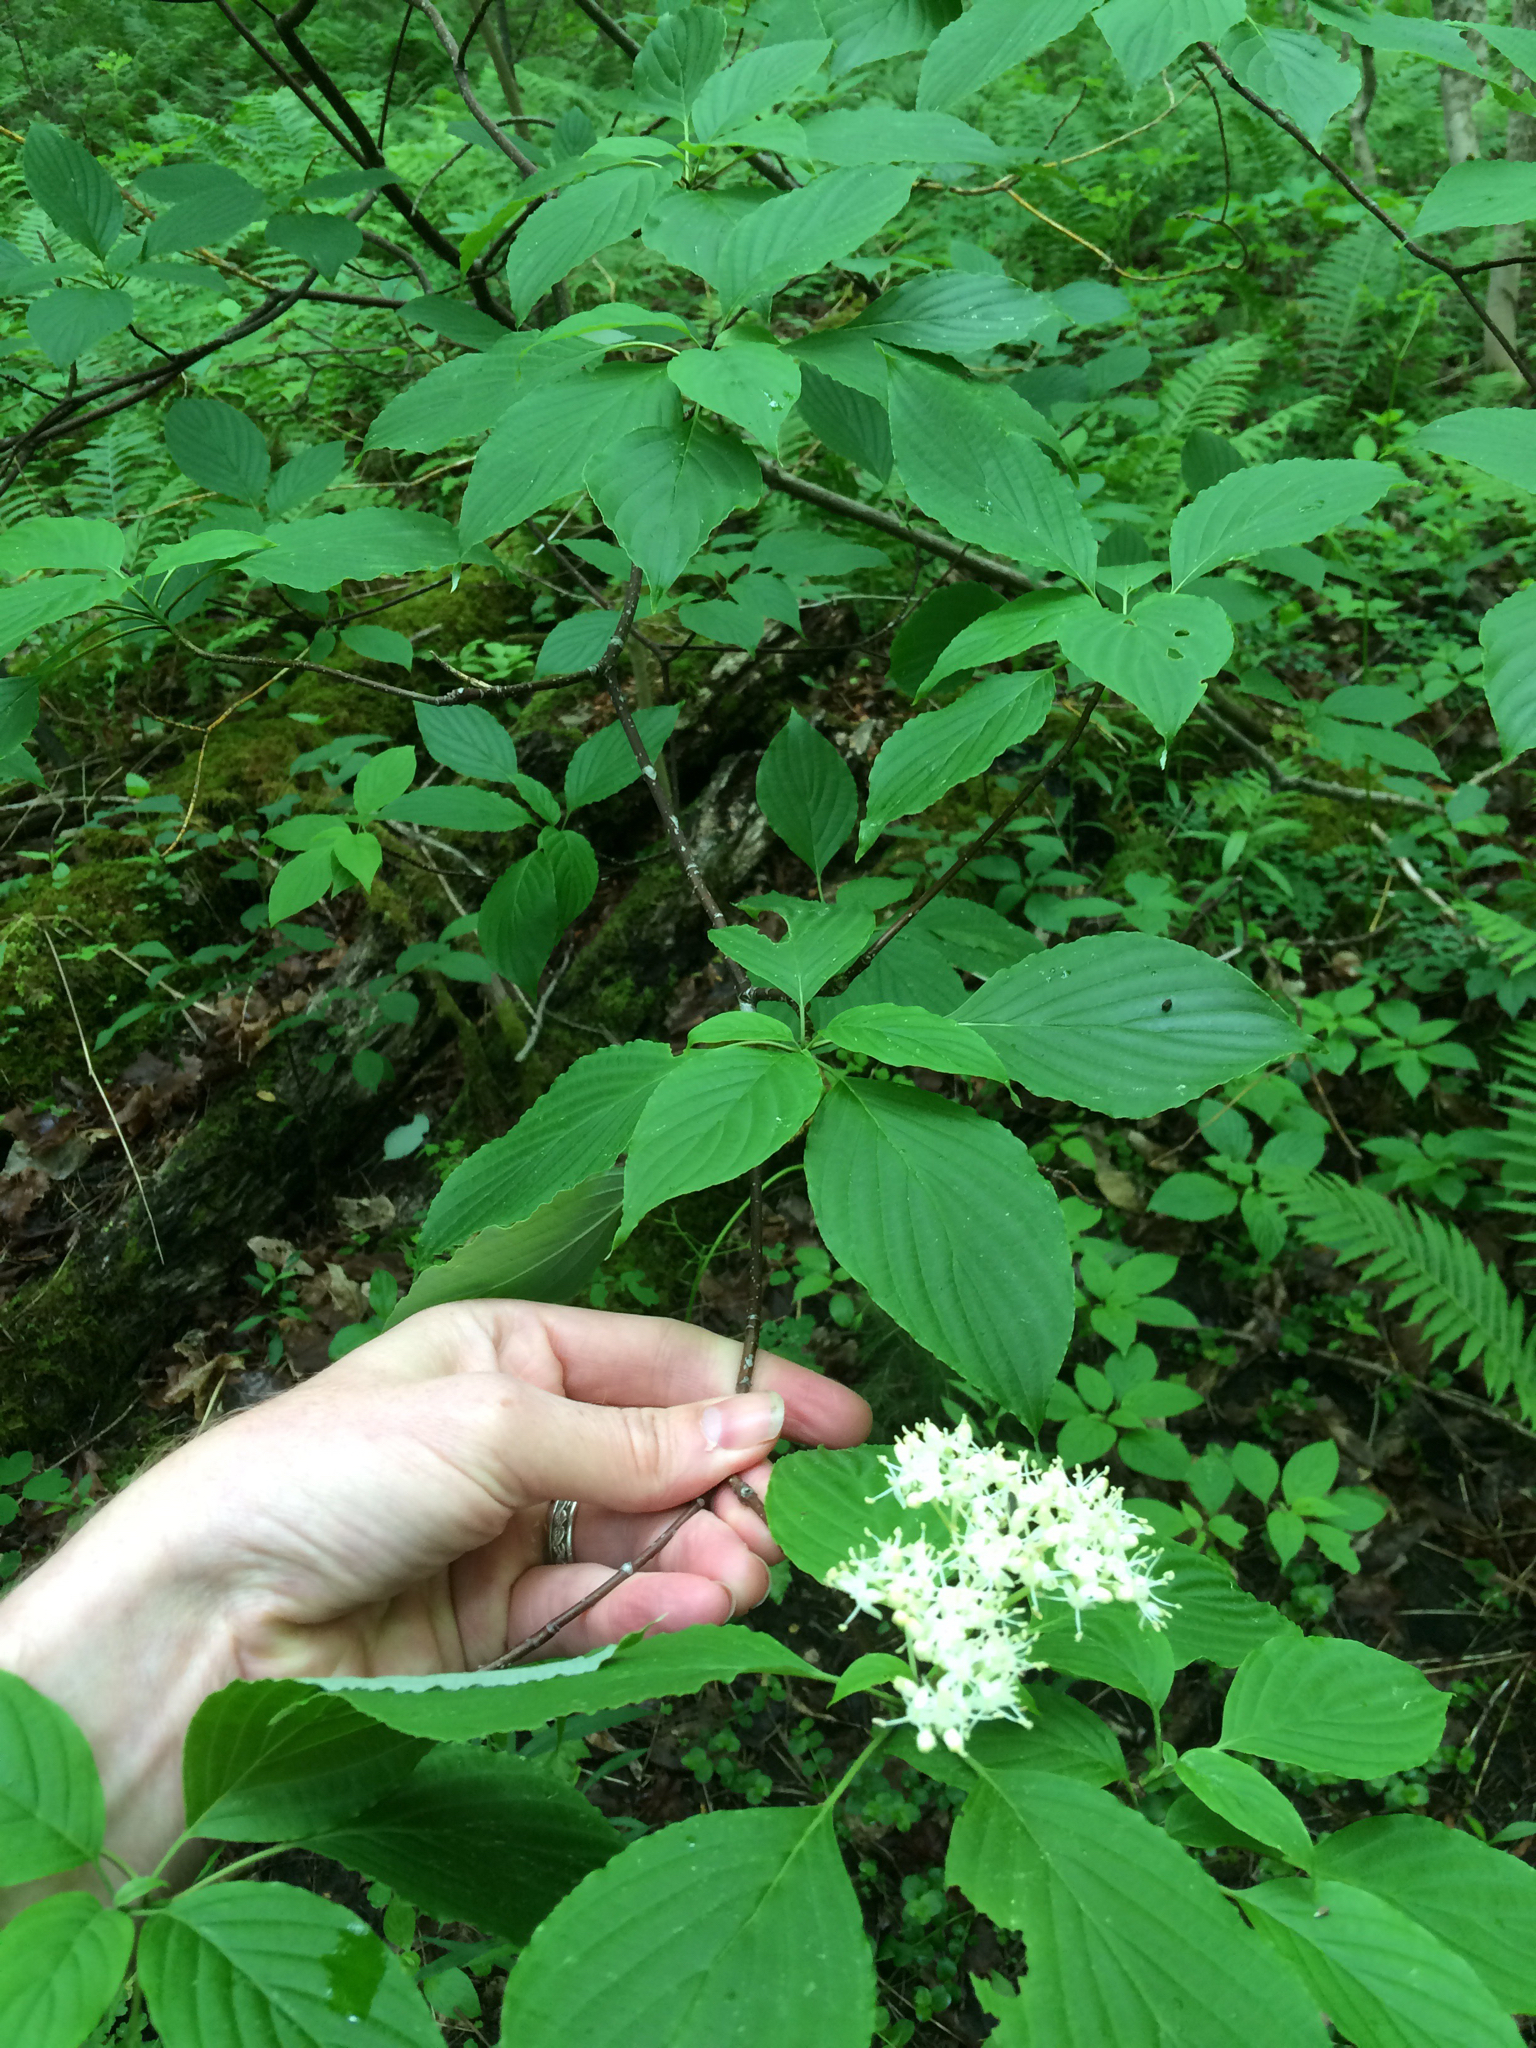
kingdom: Plantae
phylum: Tracheophyta
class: Magnoliopsida
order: Cornales
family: Cornaceae
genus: Cornus
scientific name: Cornus alternifolia
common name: Pagoda dogwood
